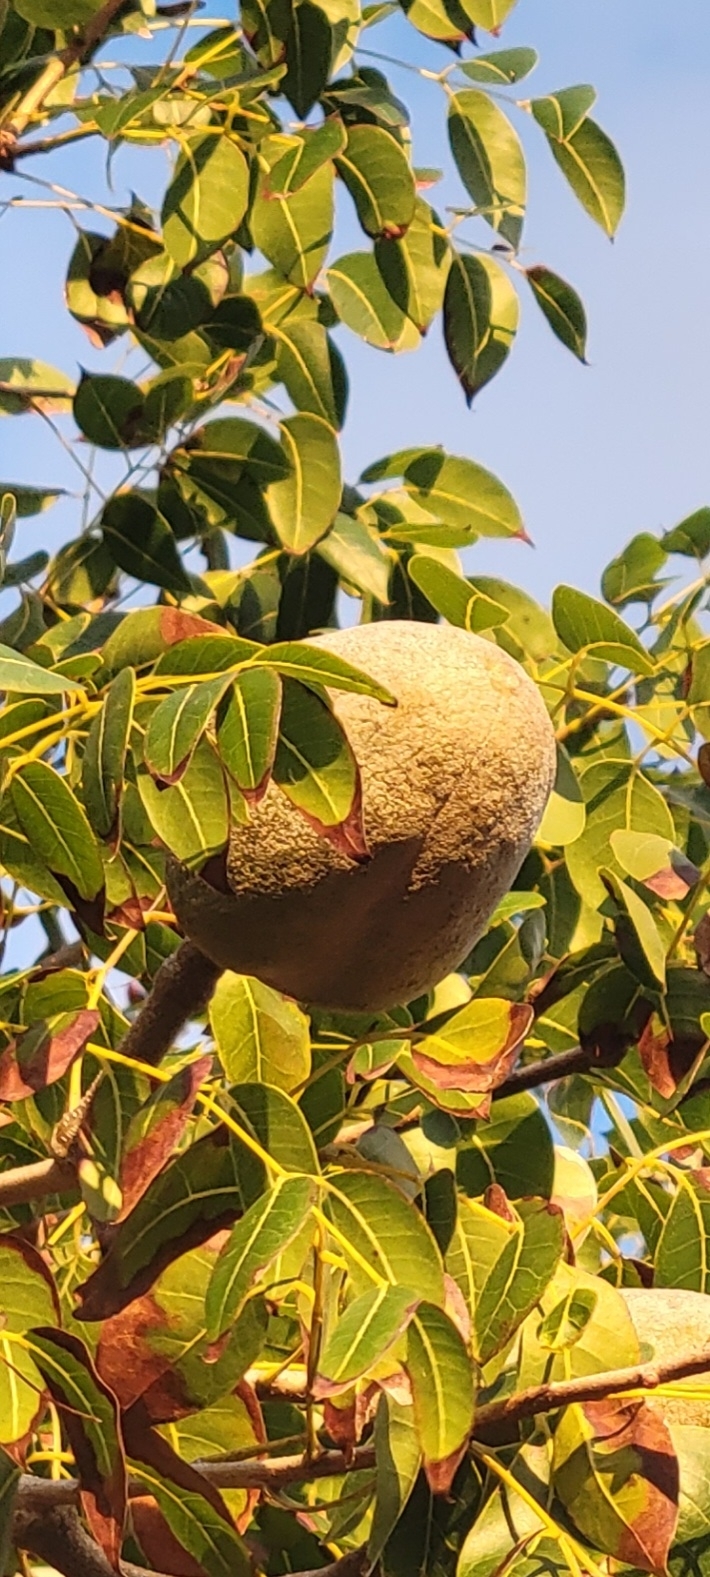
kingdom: Plantae
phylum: Tracheophyta
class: Magnoliopsida
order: Sapindales
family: Meliaceae
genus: Swietenia
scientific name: Swietenia mahagoni
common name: West indian mahogany
